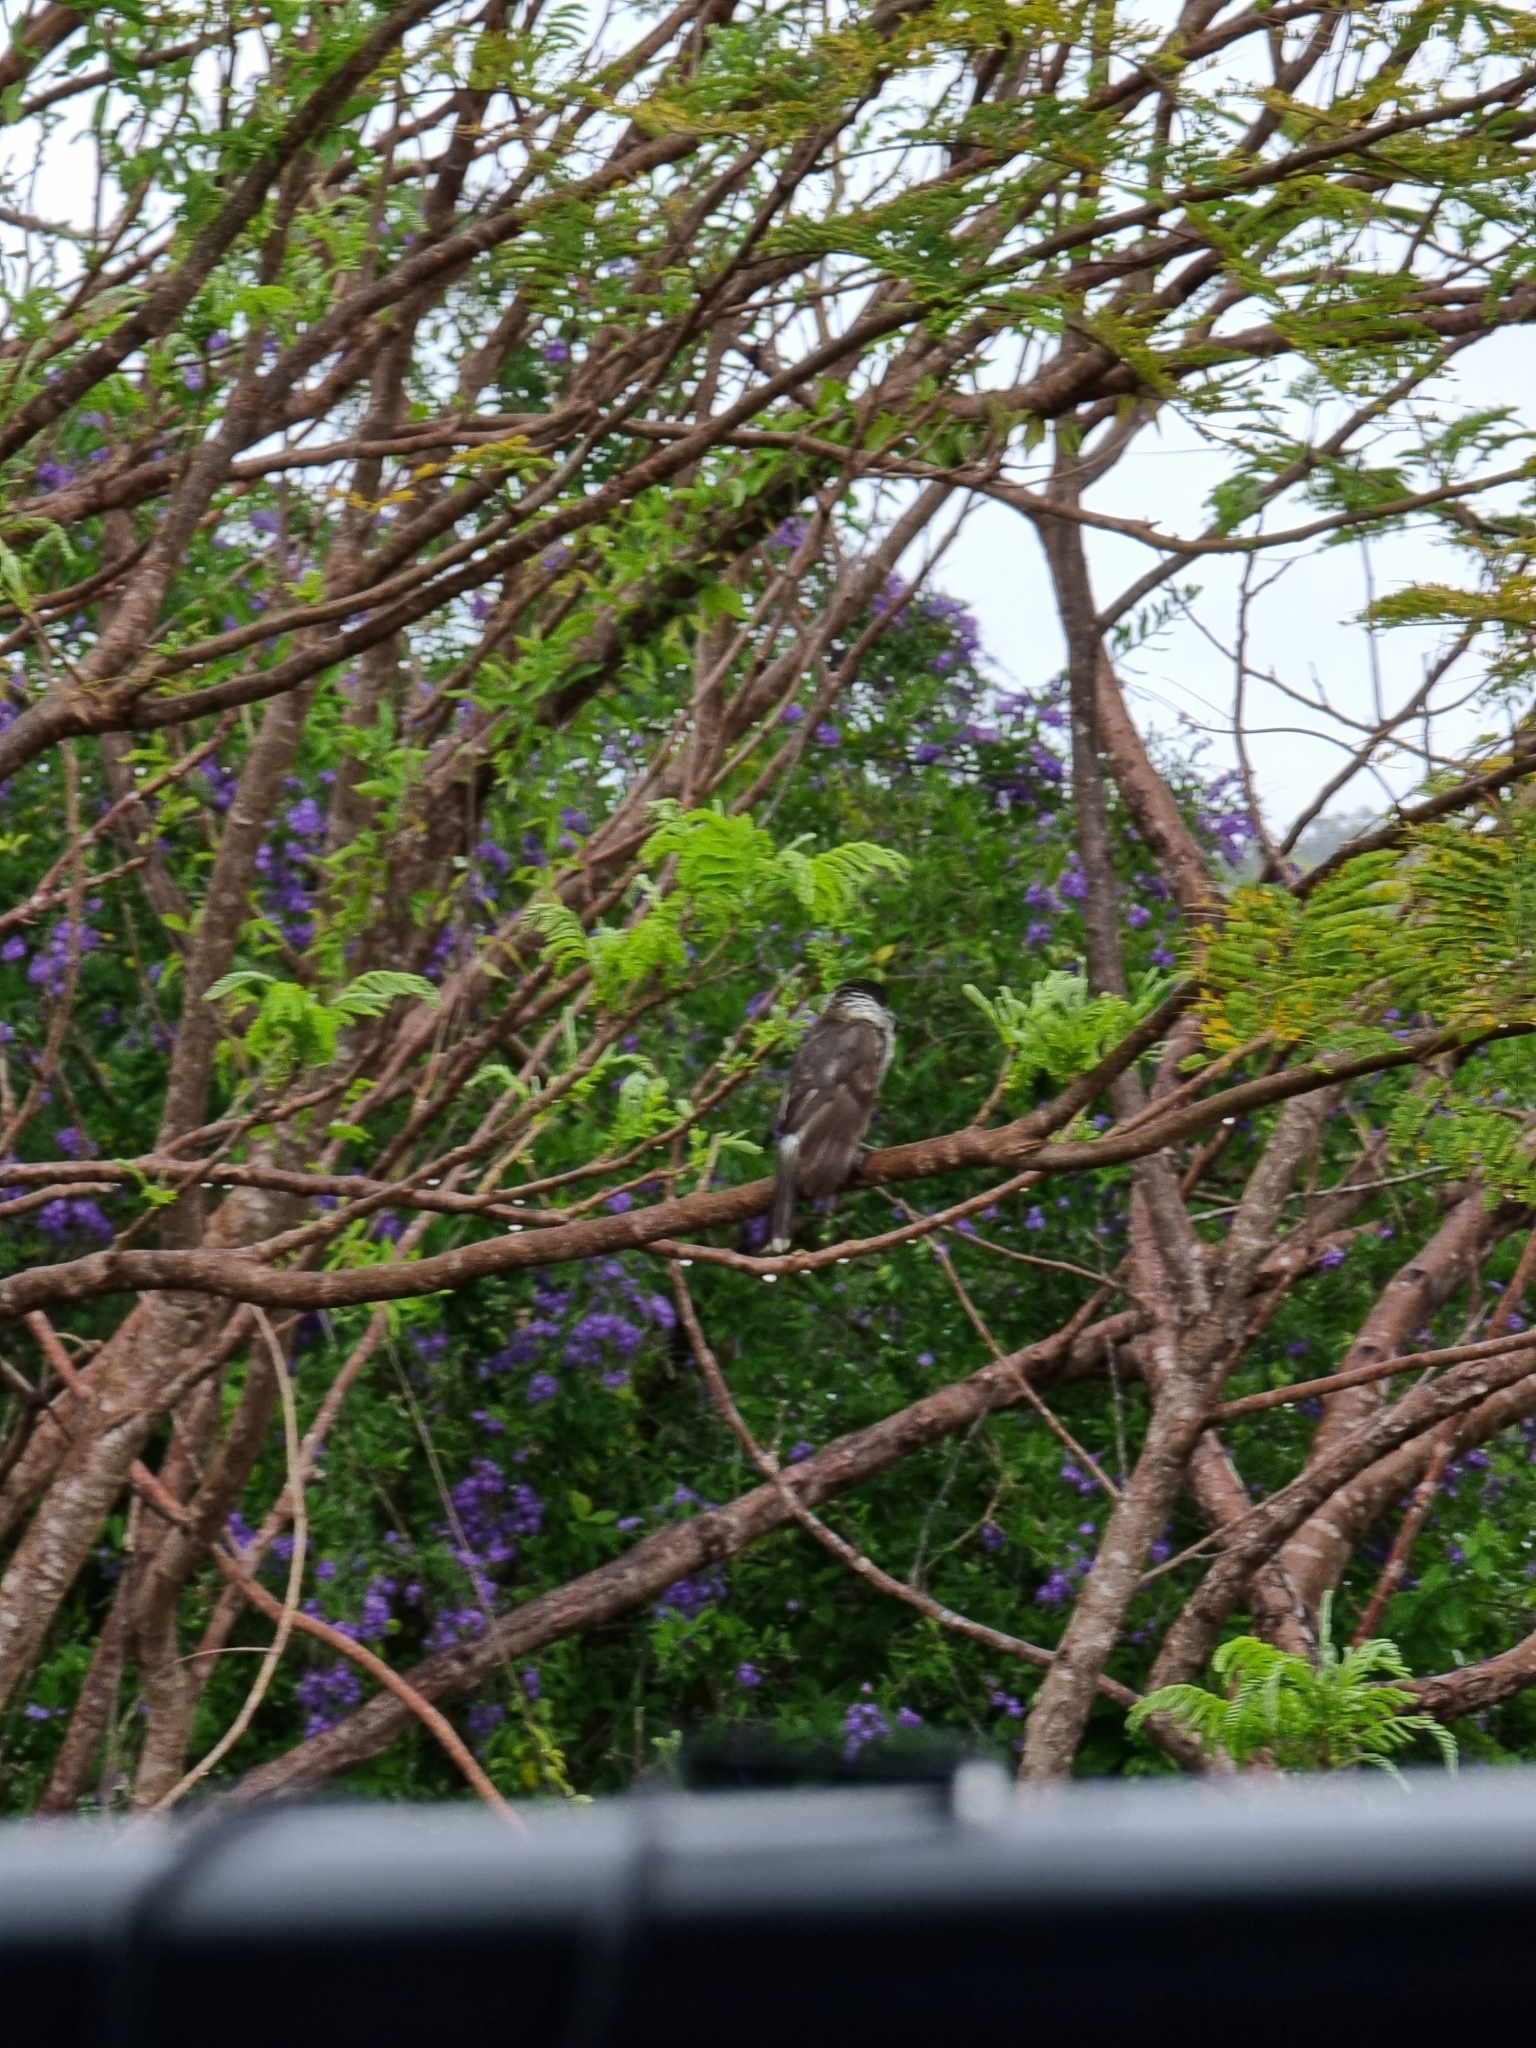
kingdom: Animalia
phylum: Chordata
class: Aves
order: Passeriformes
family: Cracticidae
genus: Cracticus
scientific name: Cracticus torquatus
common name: Grey butcherbird
